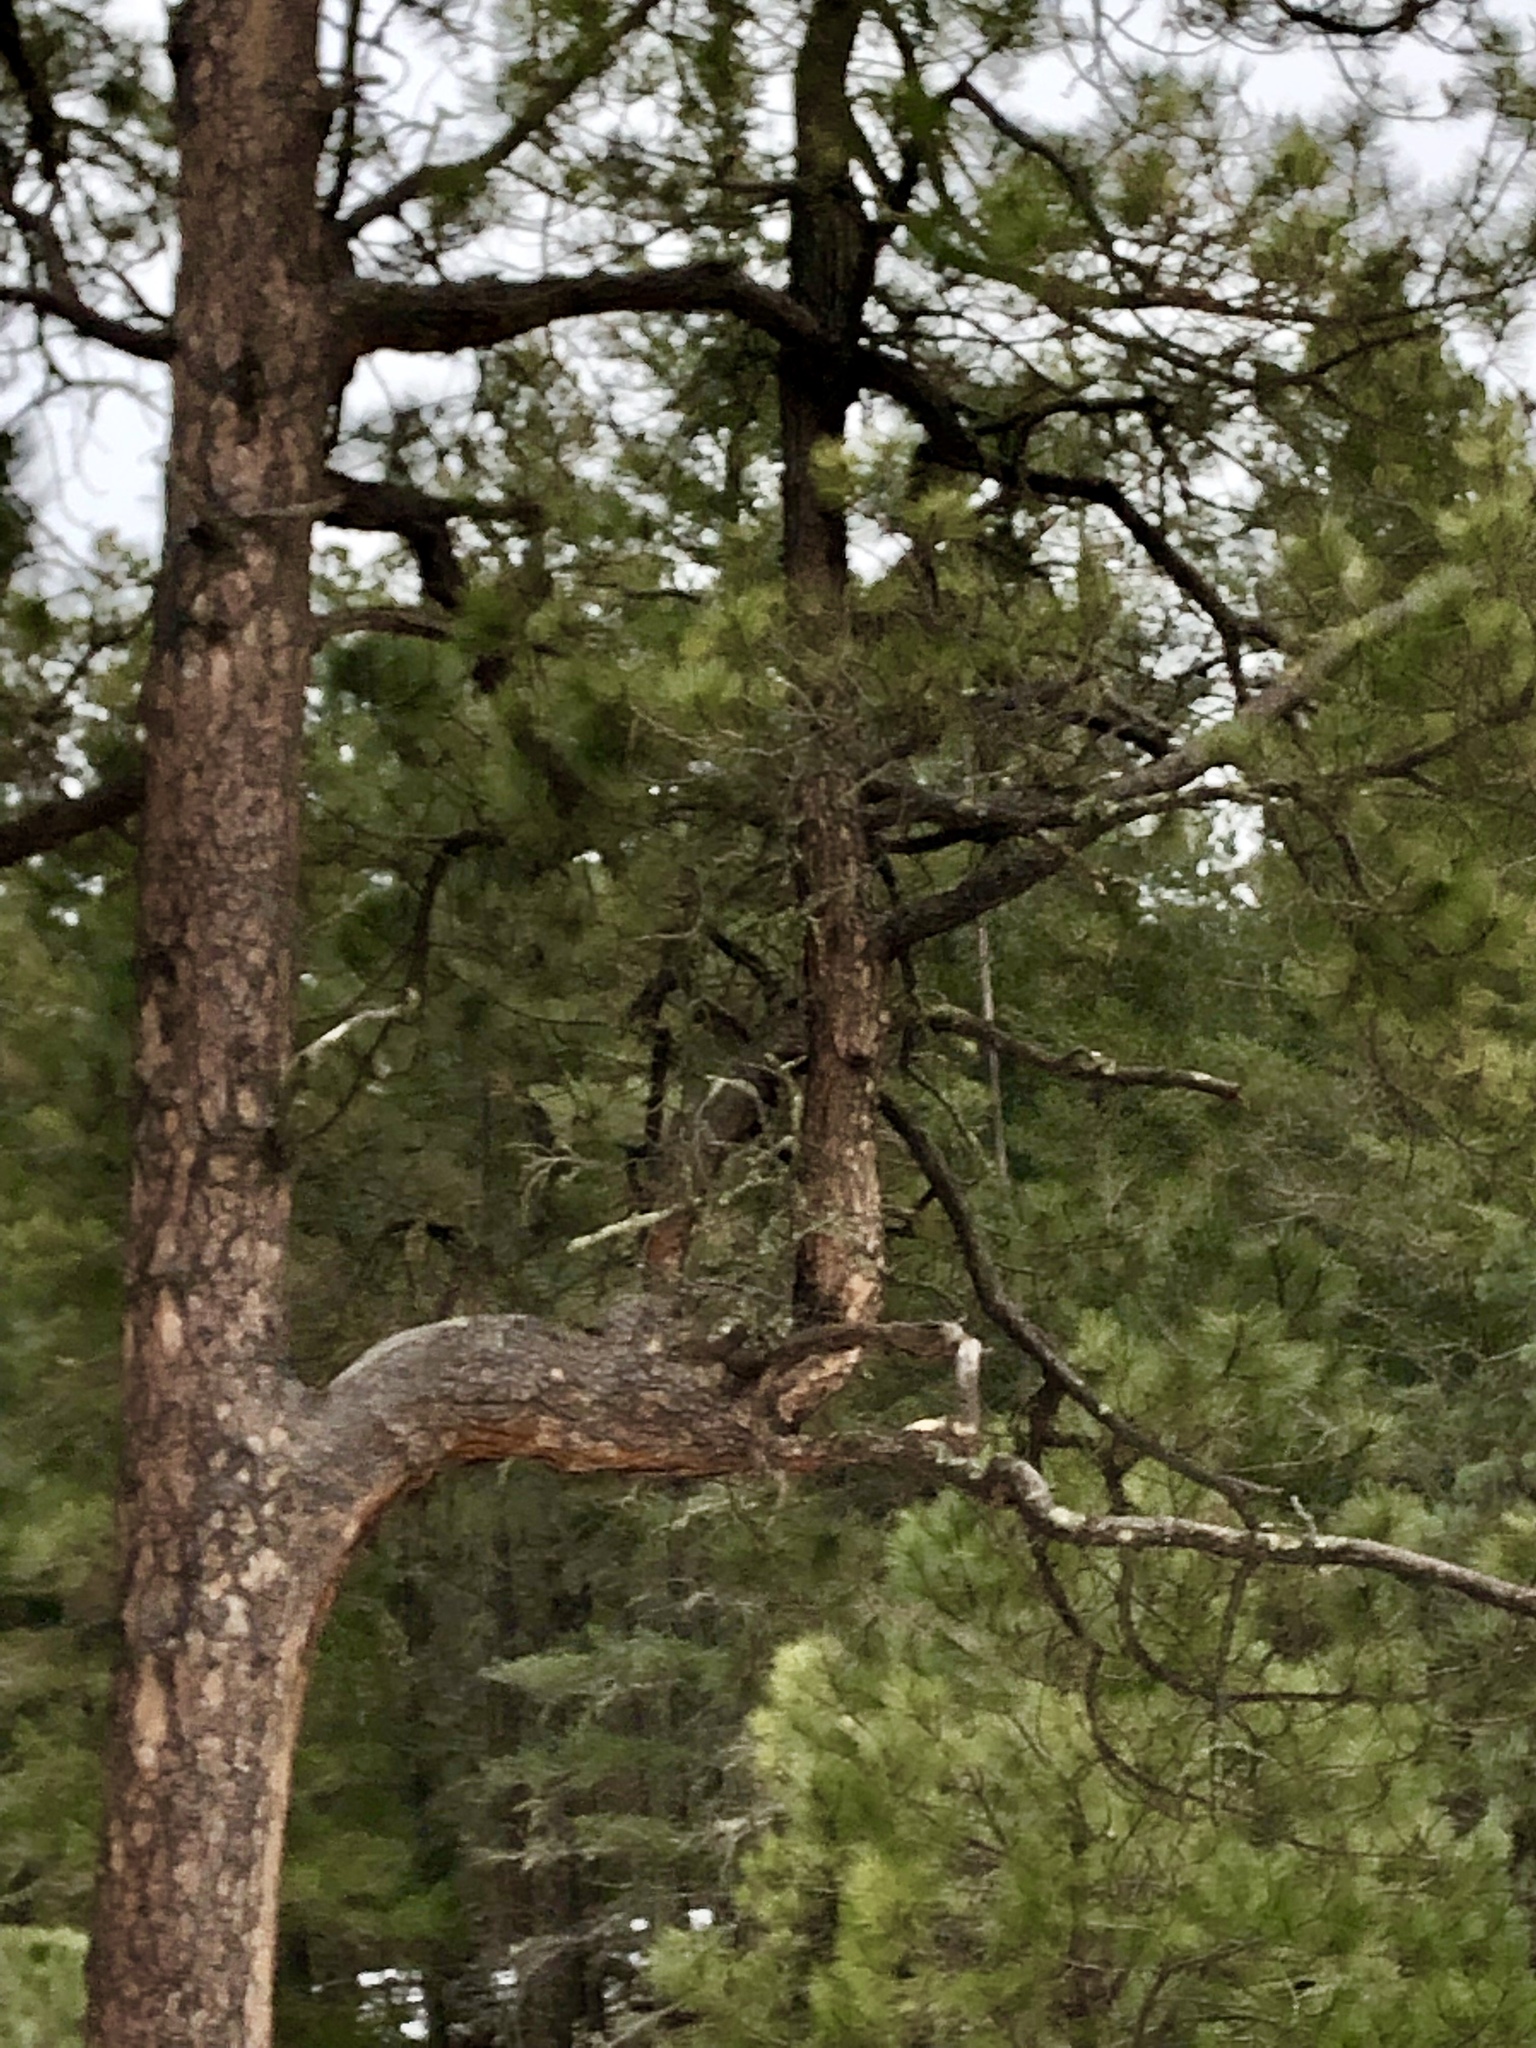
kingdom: Plantae
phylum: Tracheophyta
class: Pinopsida
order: Pinales
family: Pinaceae
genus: Pinus
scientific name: Pinus ponderosa
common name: Western yellow-pine
